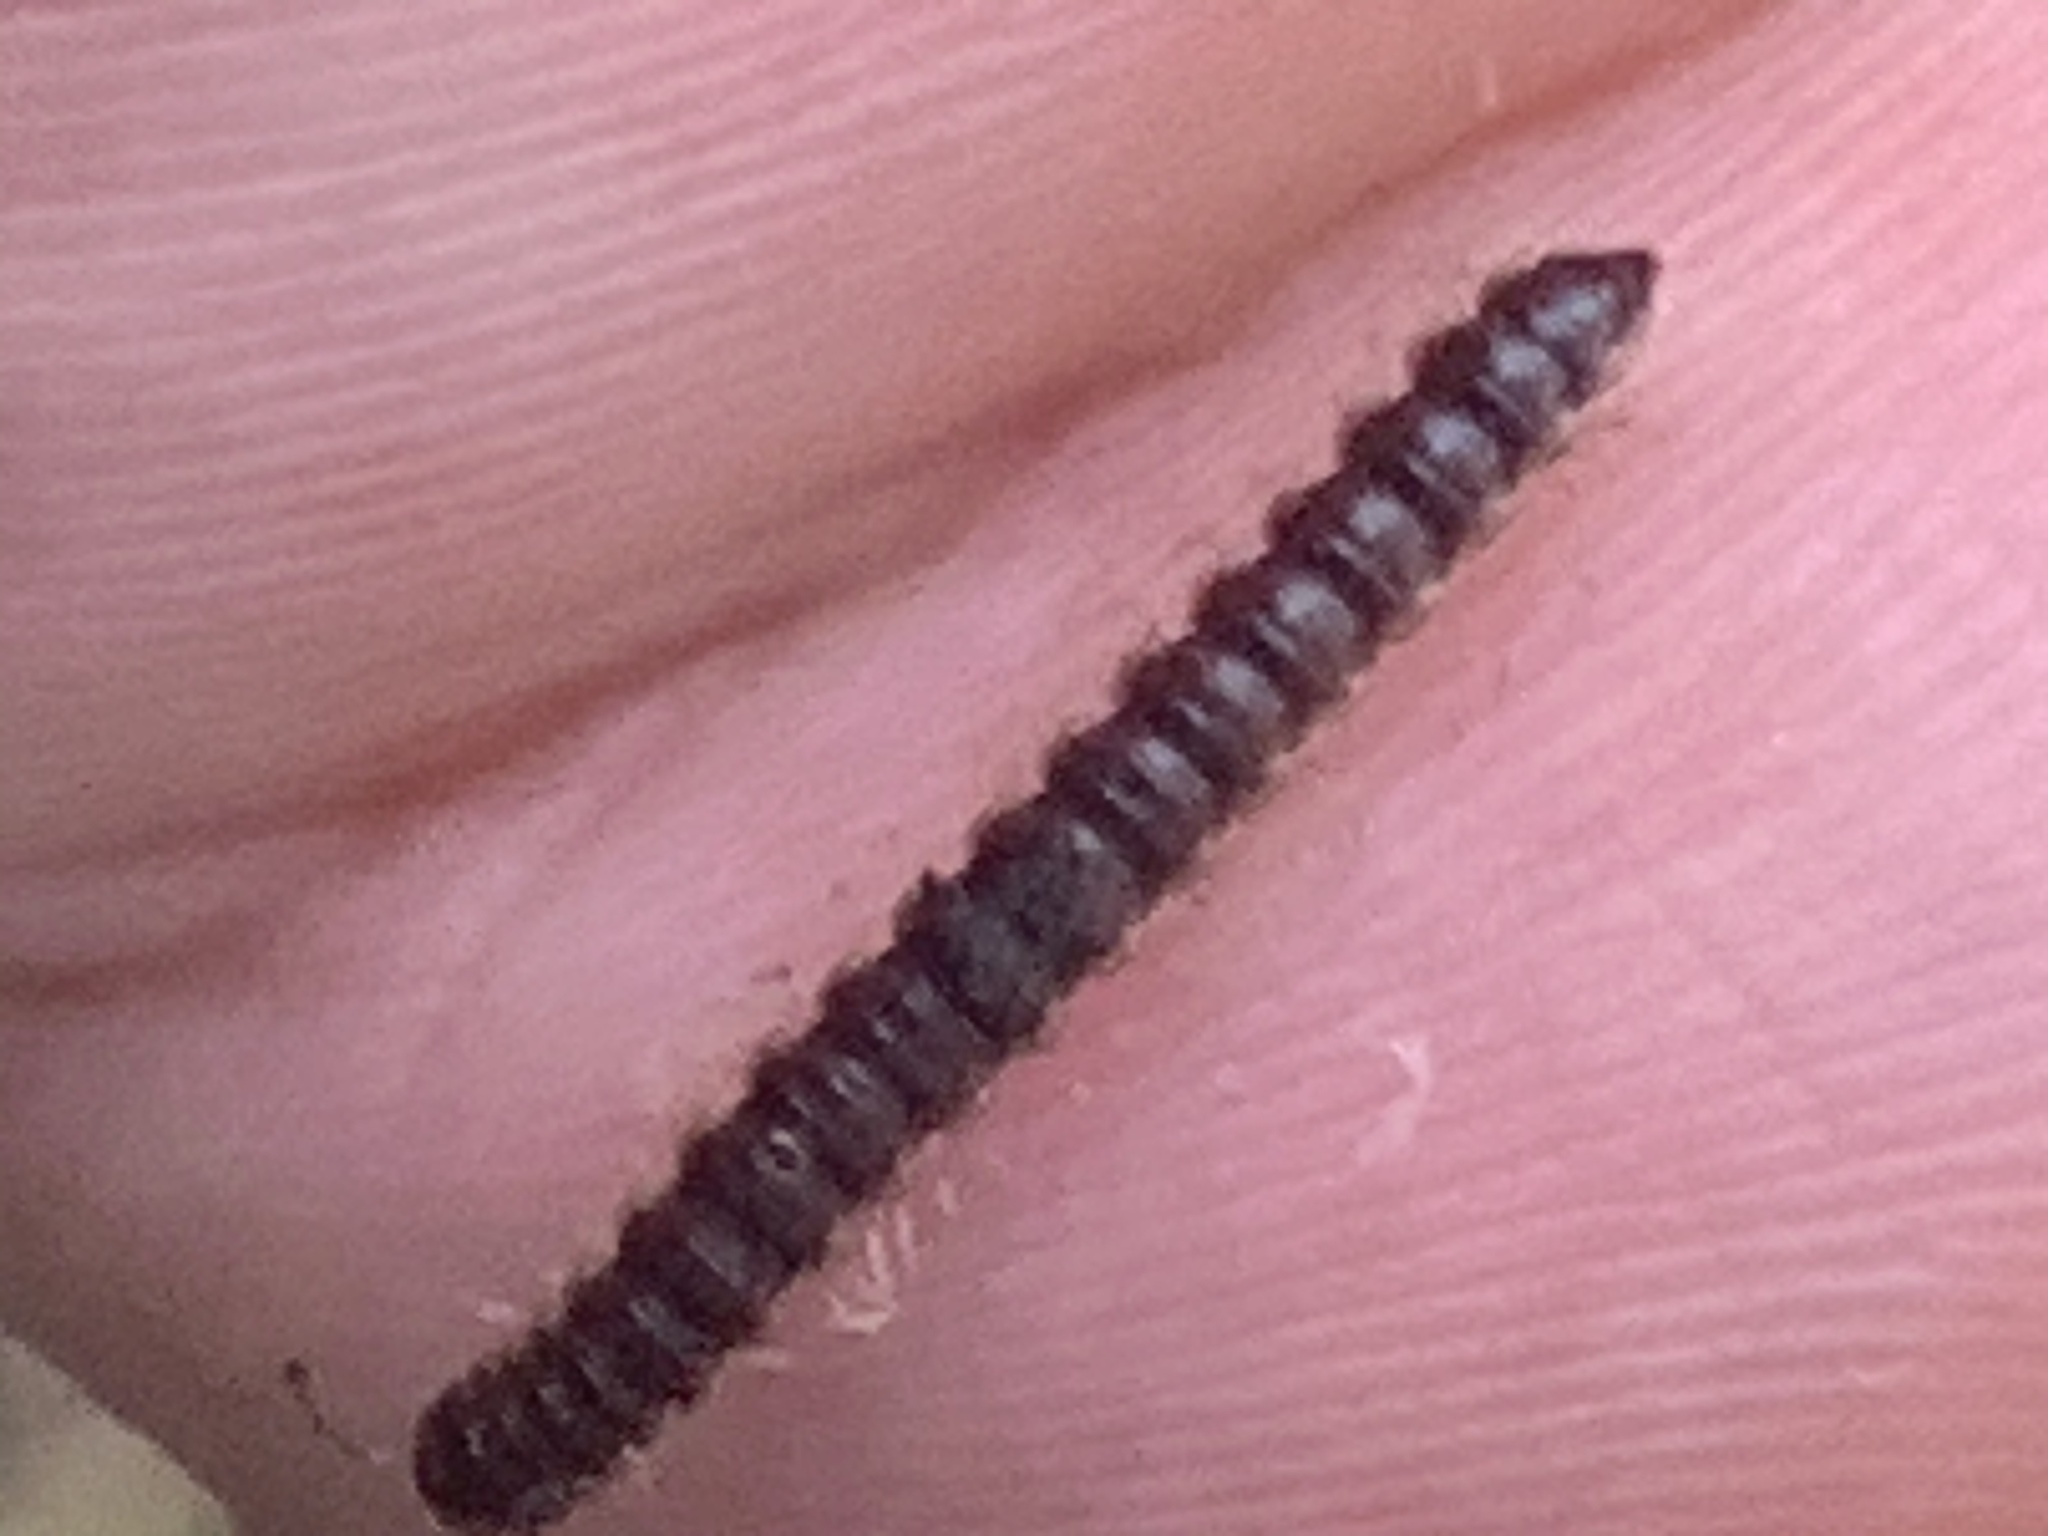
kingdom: Animalia
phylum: Arthropoda
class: Diplopoda
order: Polydesmida
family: Paradoxosomatidae
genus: Oxidus
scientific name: Oxidus gracilis
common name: Greenhouse millipede
